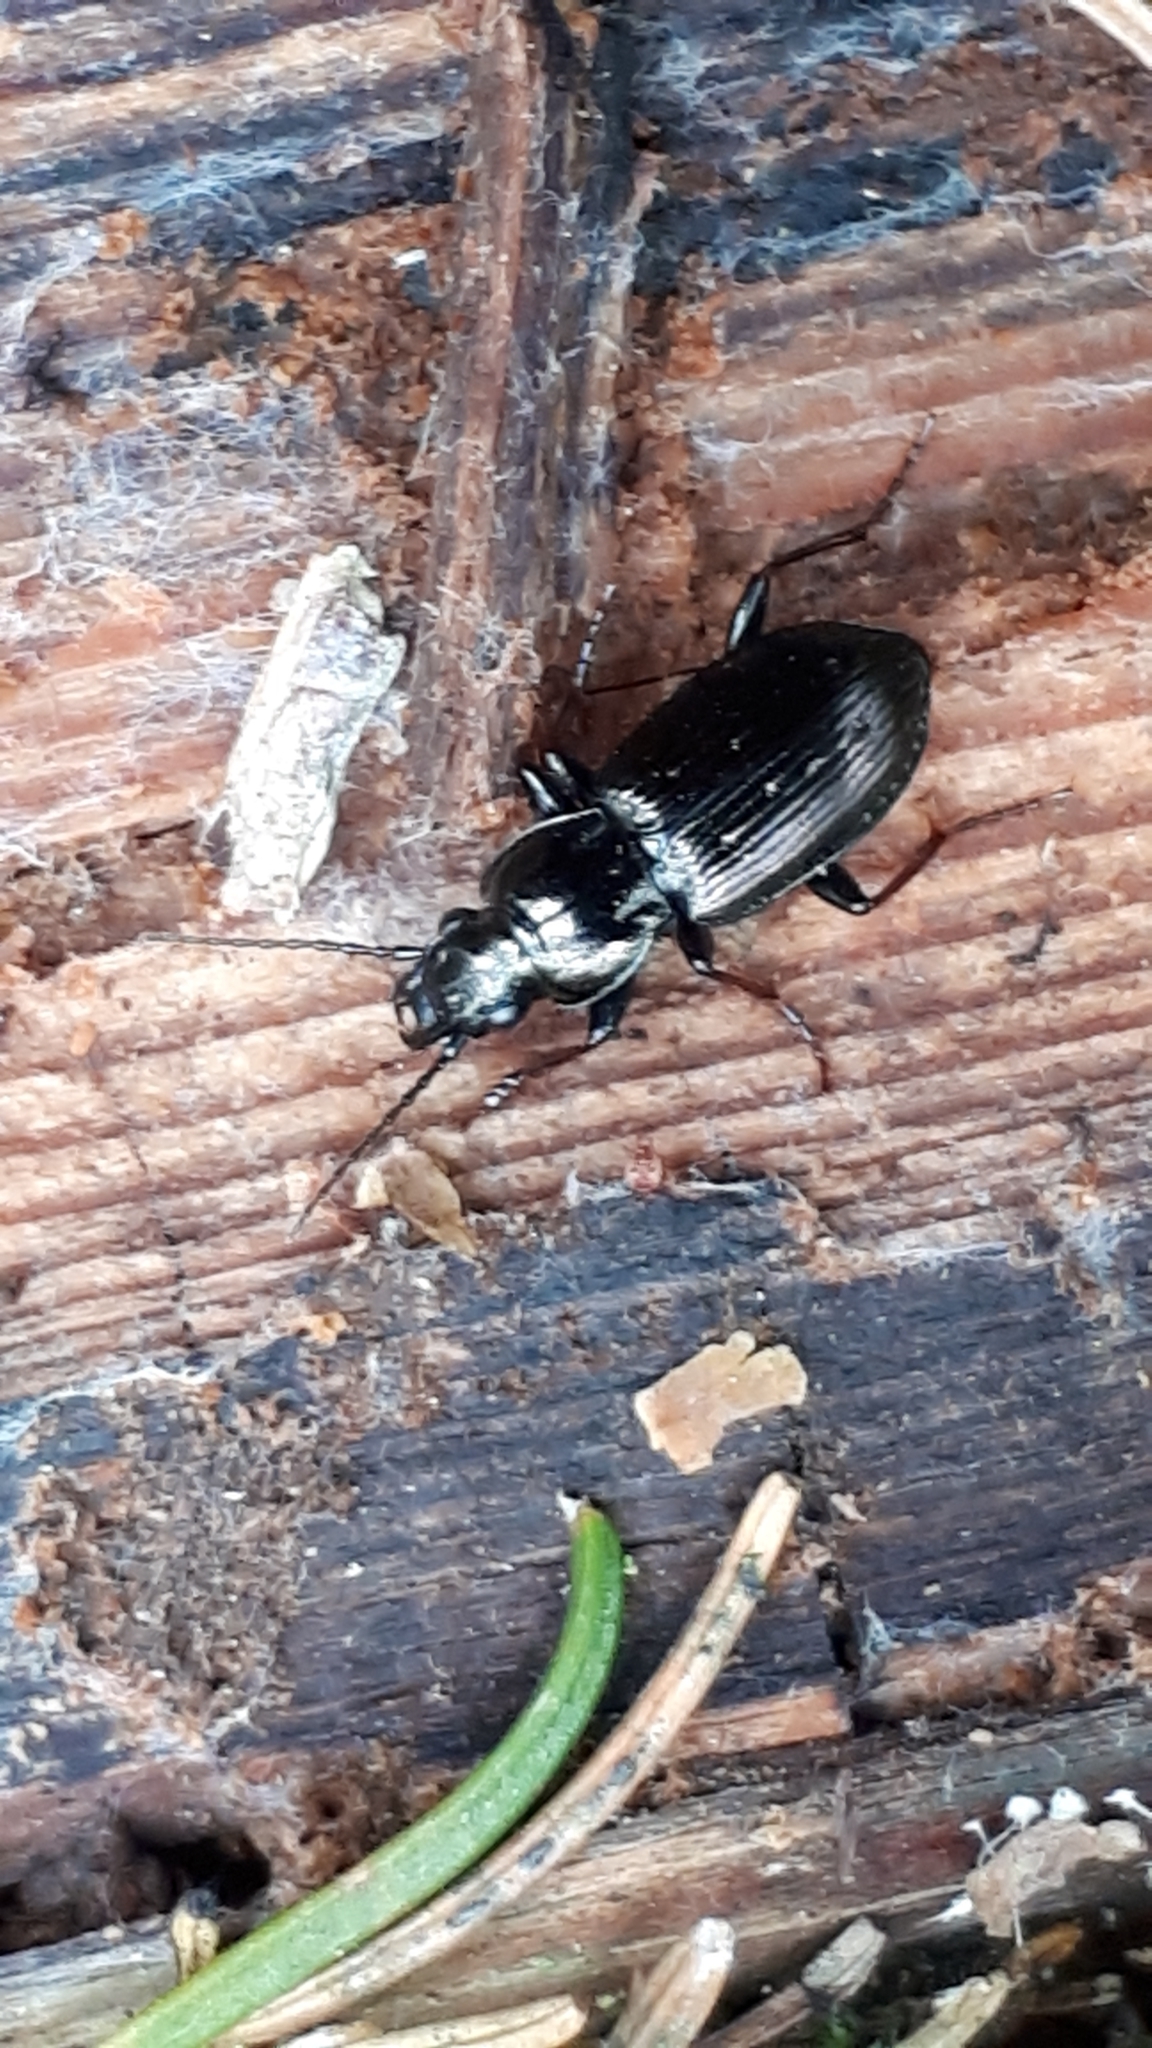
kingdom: Animalia
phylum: Arthropoda
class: Insecta
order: Coleoptera
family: Carabidae
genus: Pterostichus
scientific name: Pterostichus oblongopunctatus
